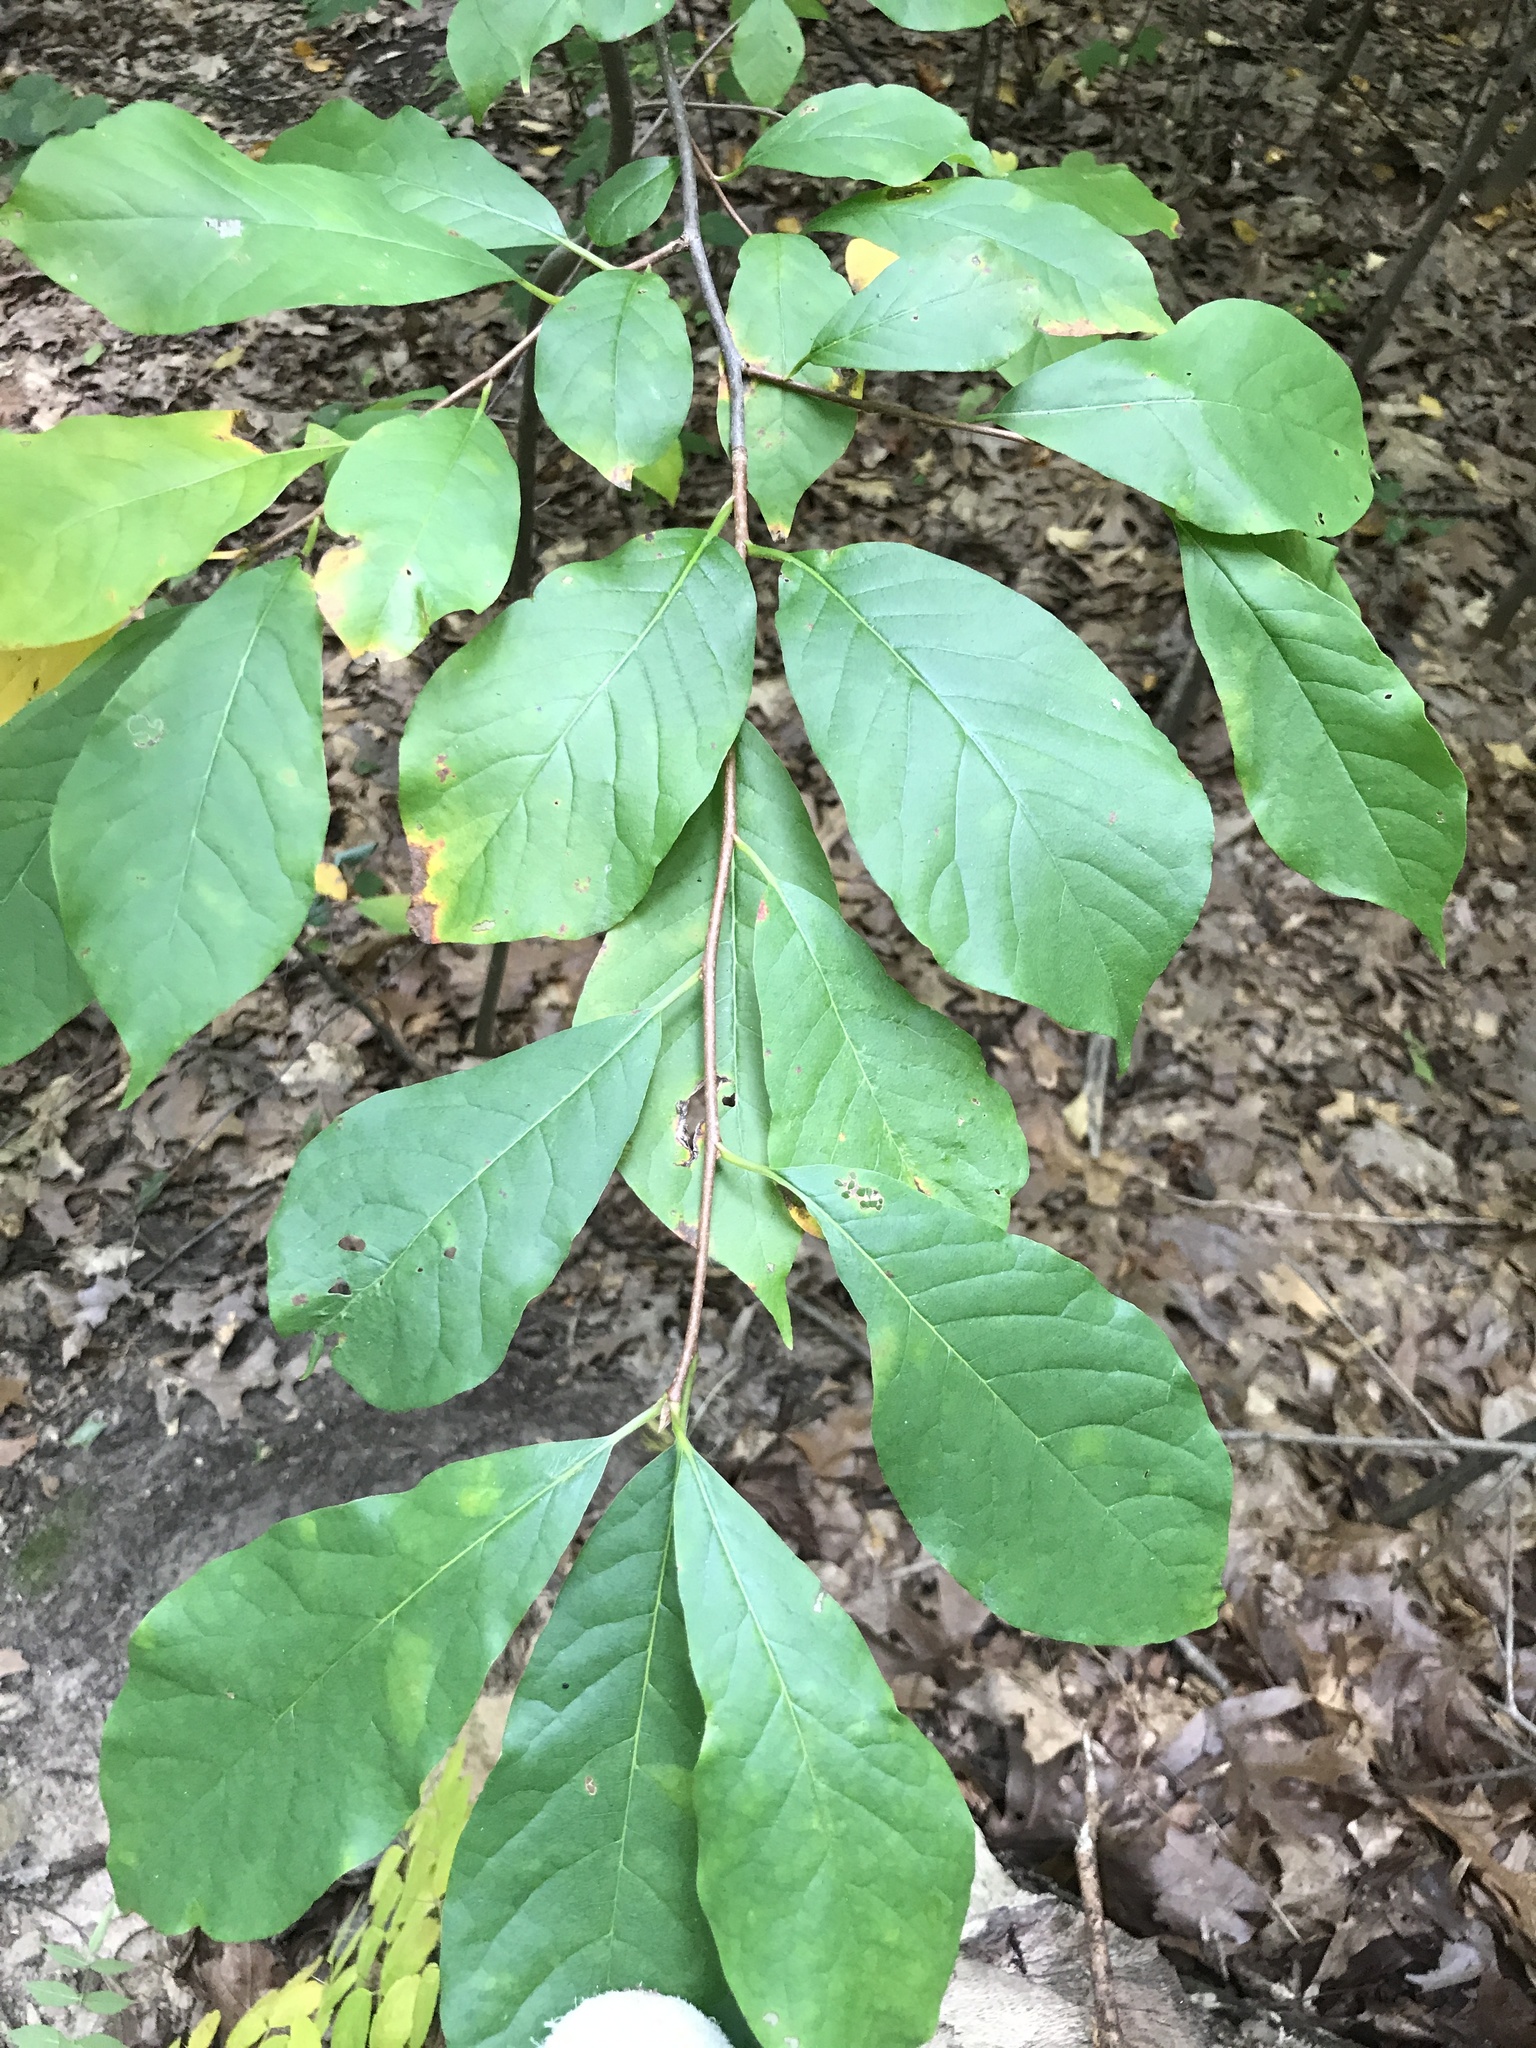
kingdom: Plantae
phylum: Tracheophyta
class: Magnoliopsida
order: Cornales
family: Nyssaceae
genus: Nyssa
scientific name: Nyssa sylvatica
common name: Black tupelo
